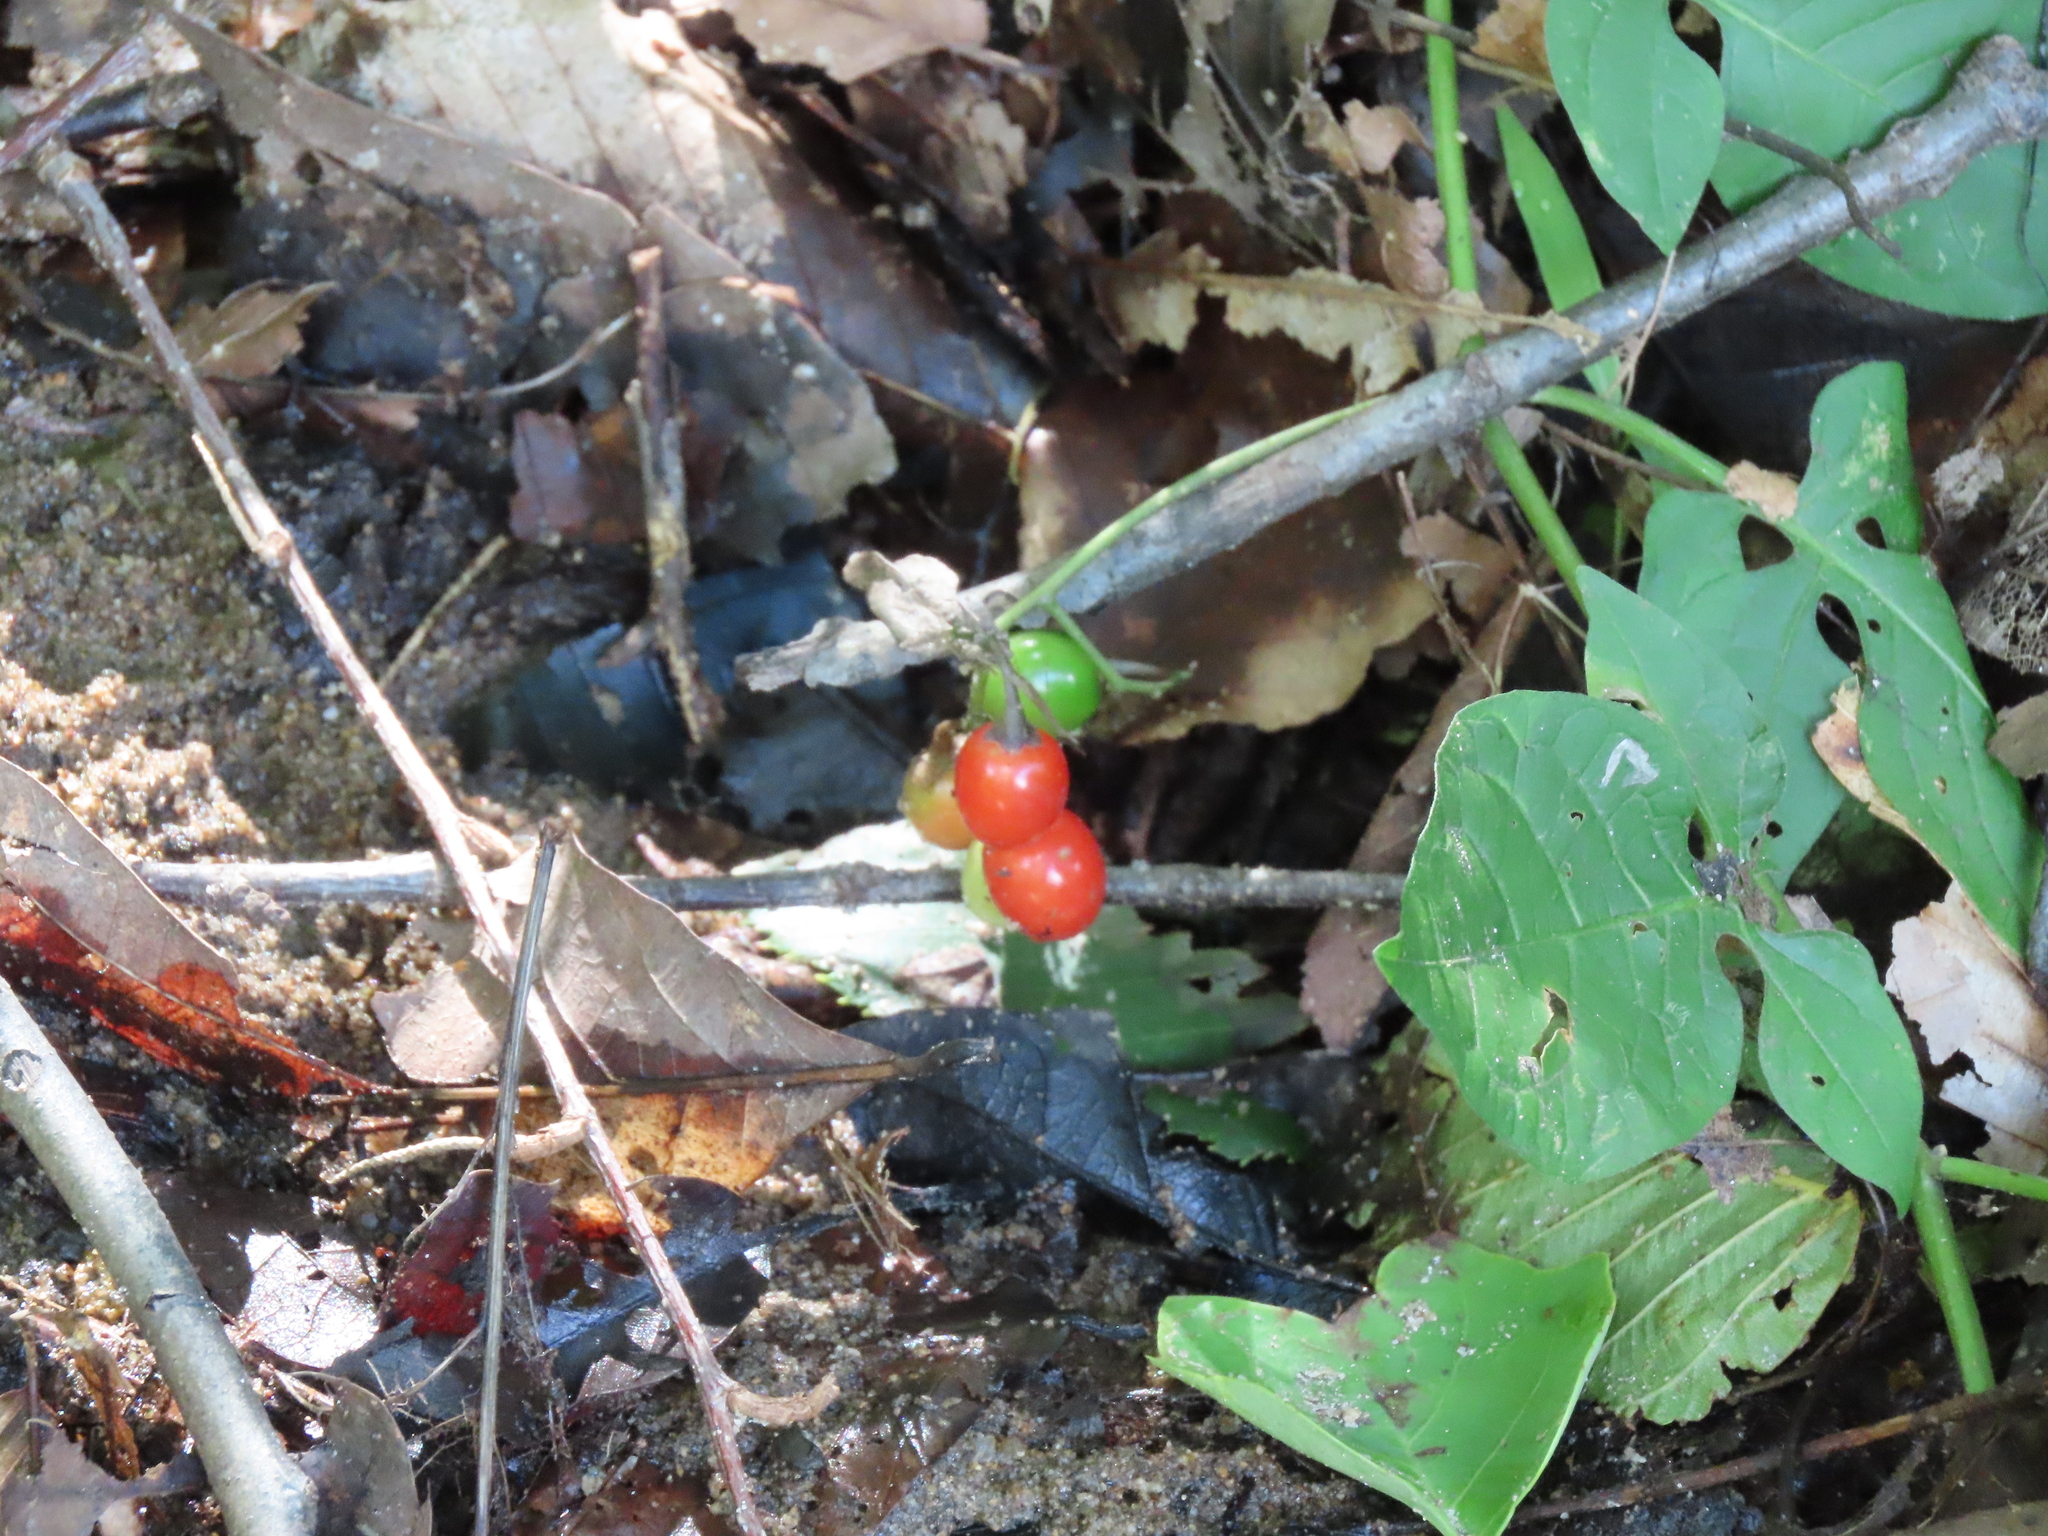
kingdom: Plantae
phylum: Tracheophyta
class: Magnoliopsida
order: Solanales
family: Solanaceae
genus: Solanum
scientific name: Solanum dulcamara
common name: Climbing nightshade
